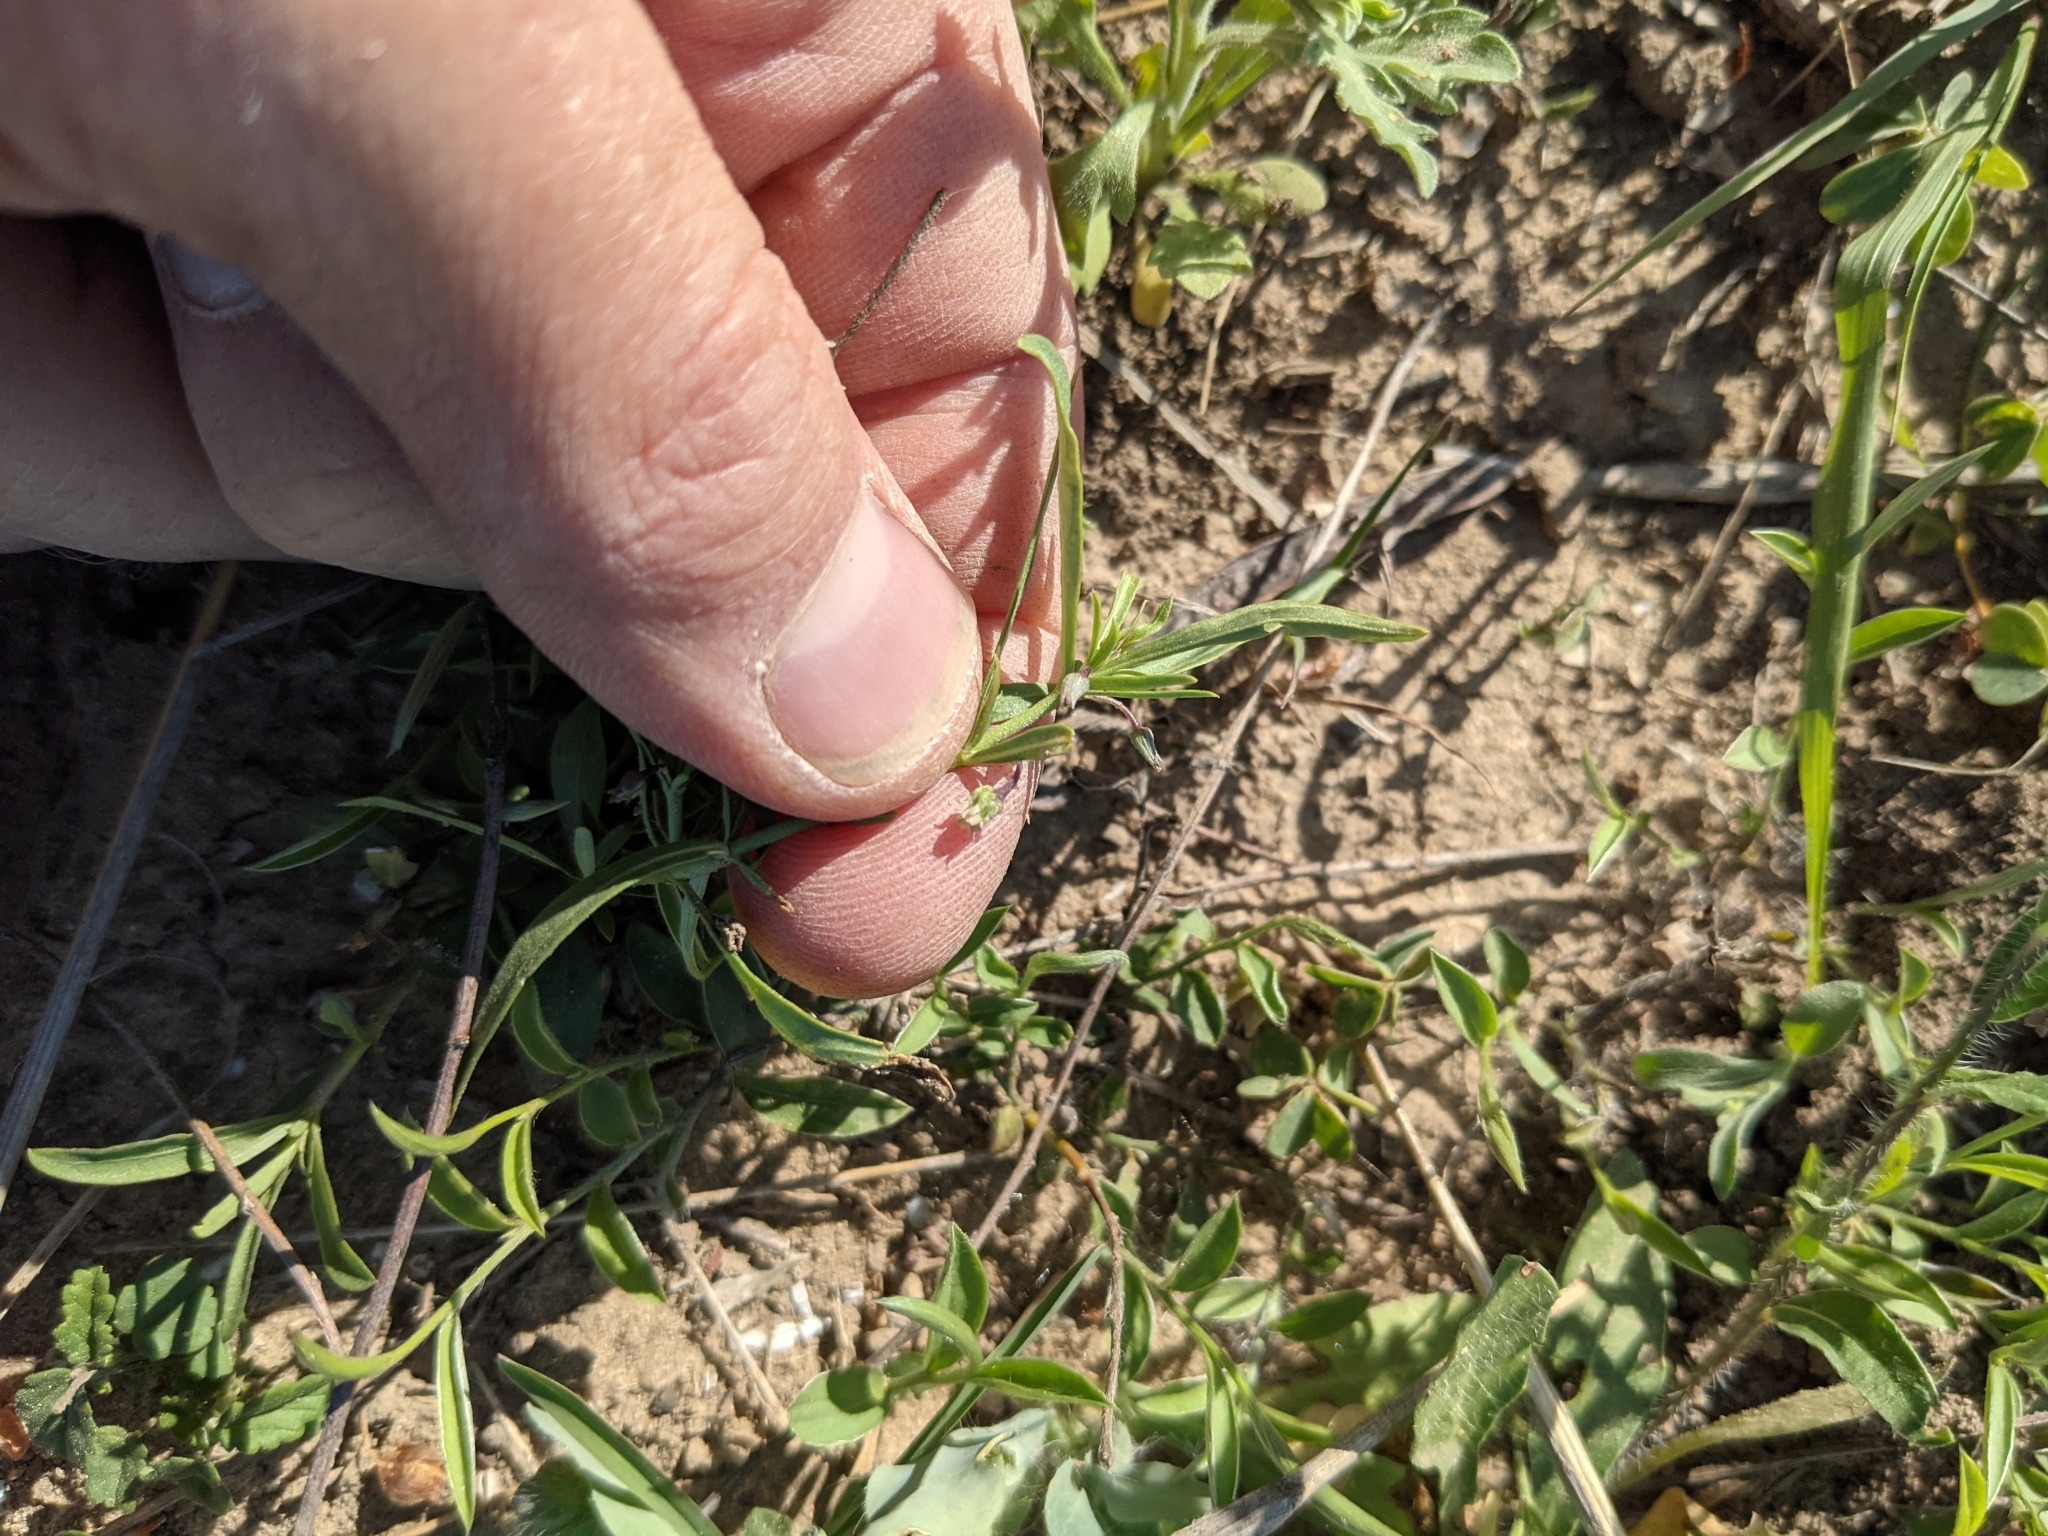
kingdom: Plantae
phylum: Tracheophyta
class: Magnoliopsida
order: Malpighiales
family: Violaceae
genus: Pombalia
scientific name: Pombalia verticillata
